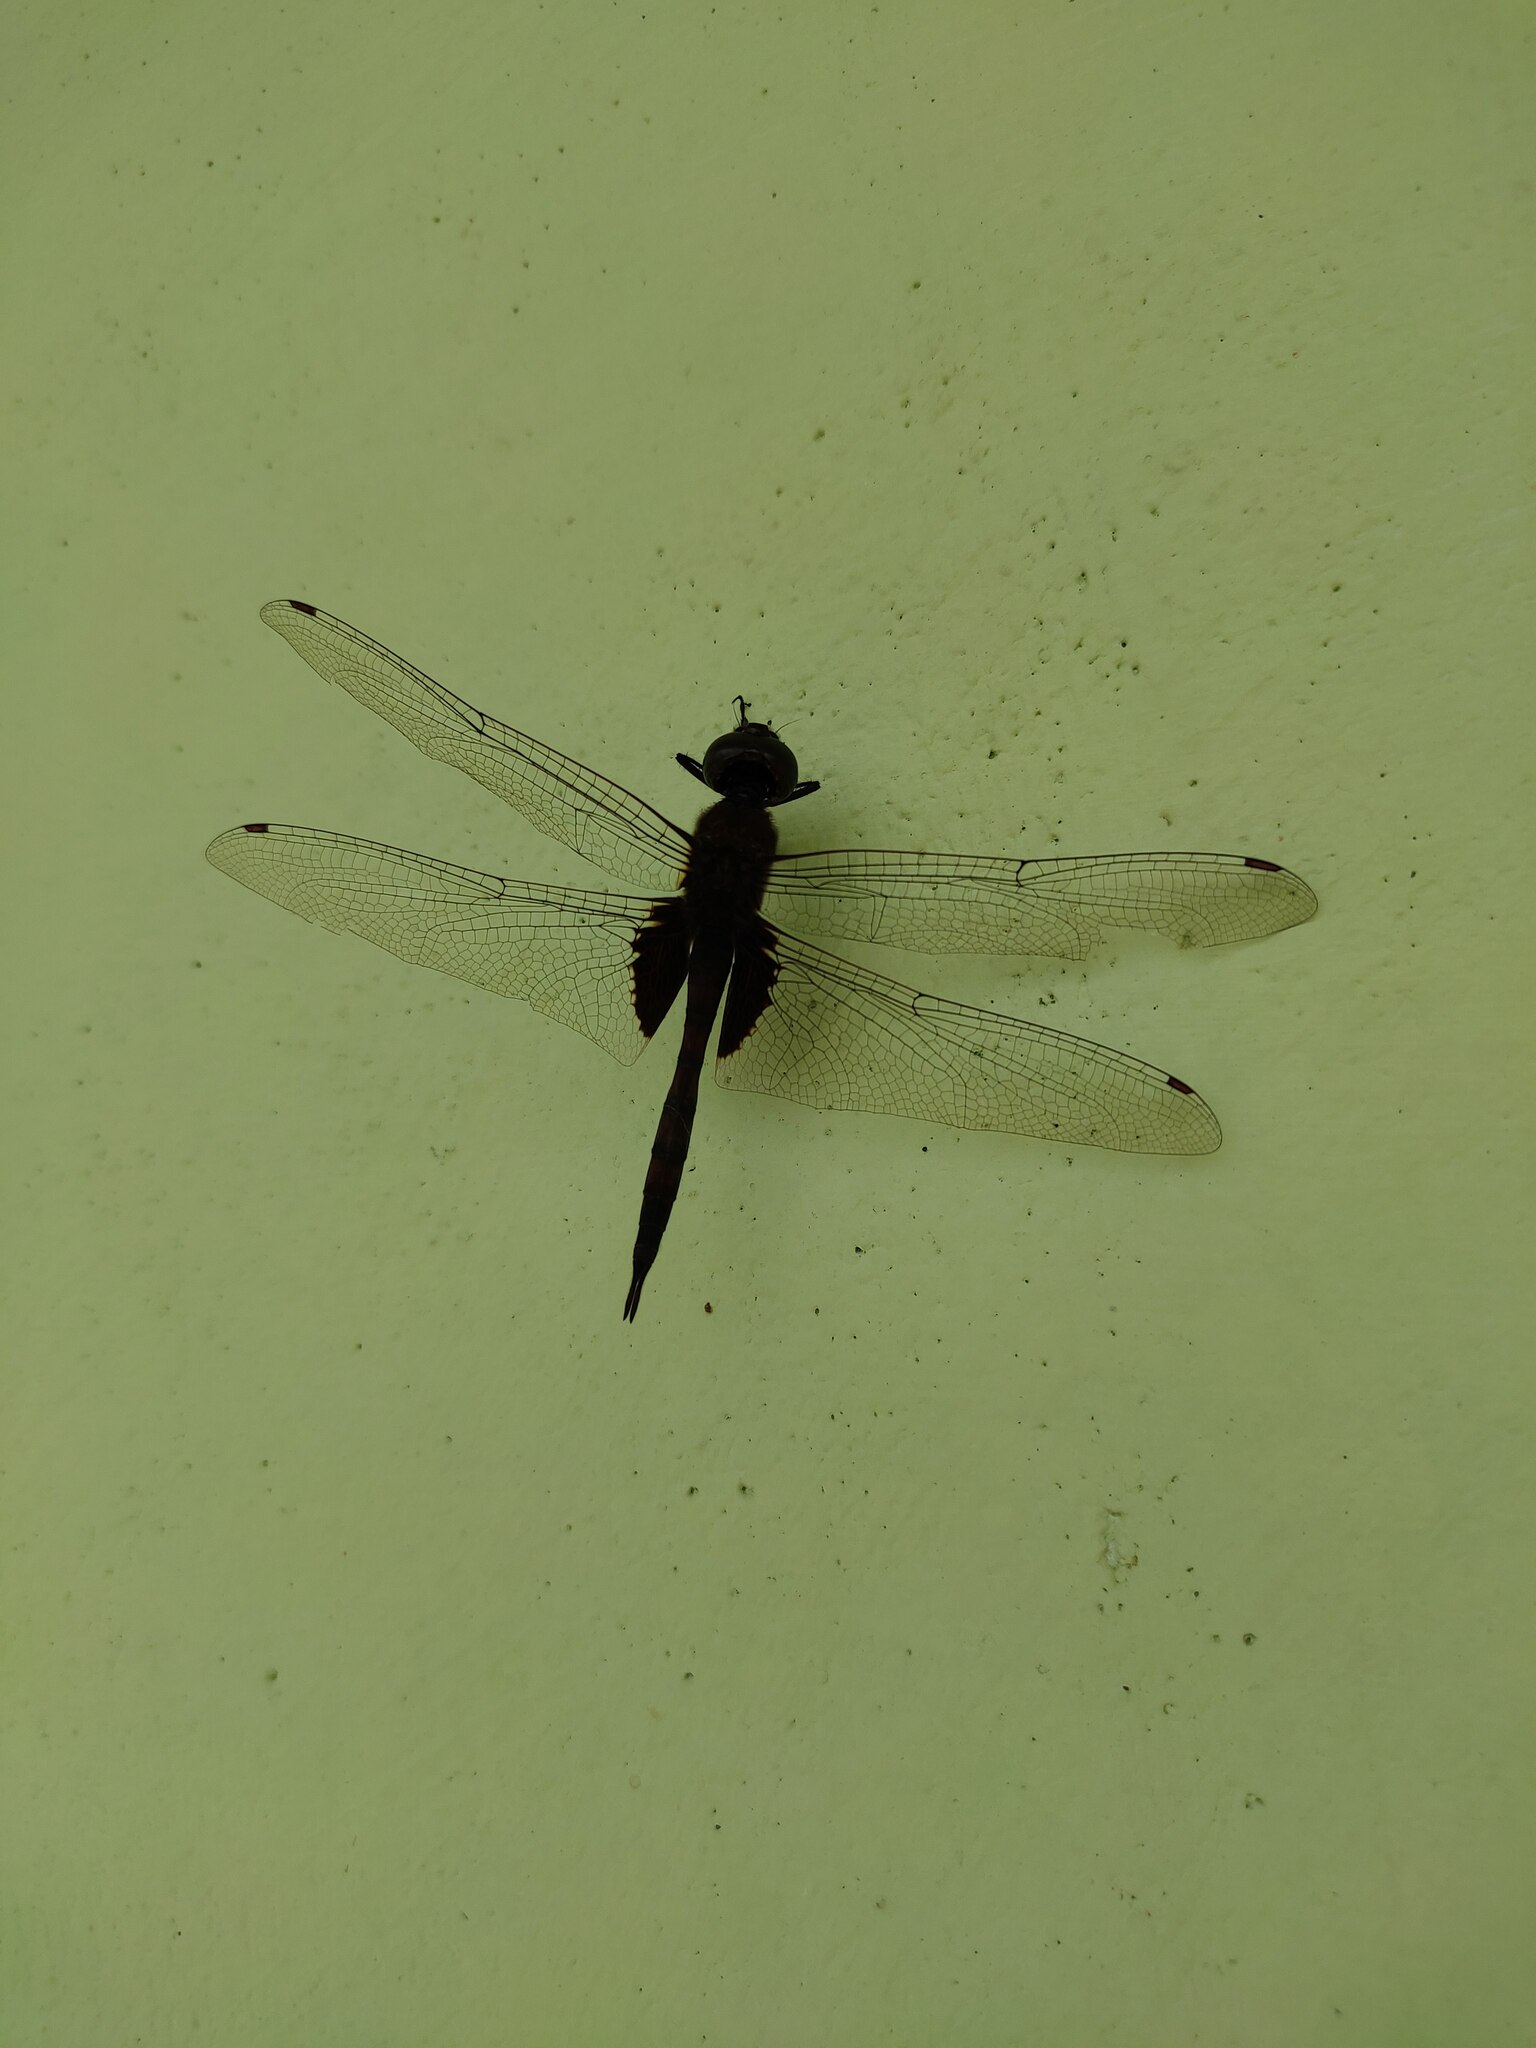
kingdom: Animalia
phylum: Arthropoda
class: Insecta
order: Odonata
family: Libellulidae
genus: Tramea
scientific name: Tramea limbata
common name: Ferruginous glider
